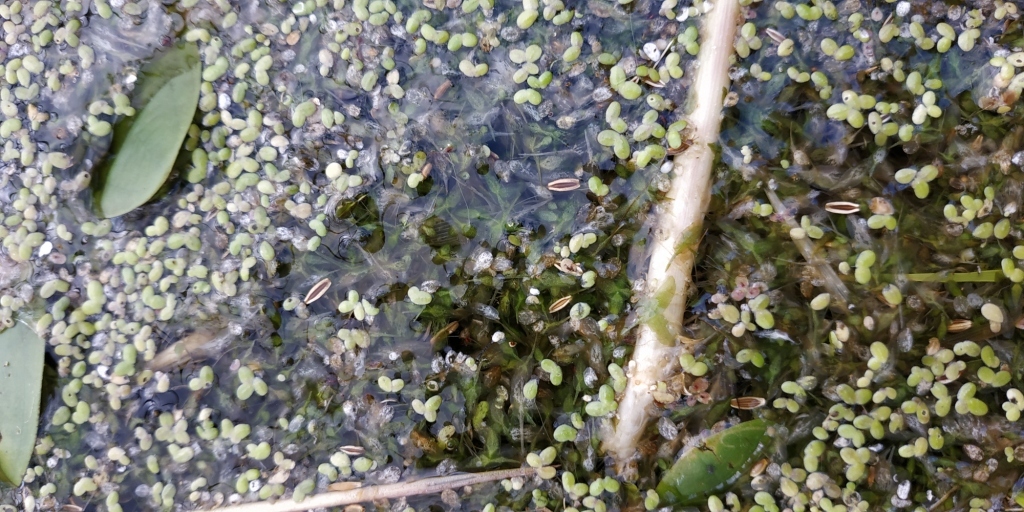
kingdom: Plantae
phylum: Tracheophyta
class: Liliopsida
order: Alismatales
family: Araceae
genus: Lemna
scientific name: Lemna trisulca
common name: Ivy-leaved duckweed
